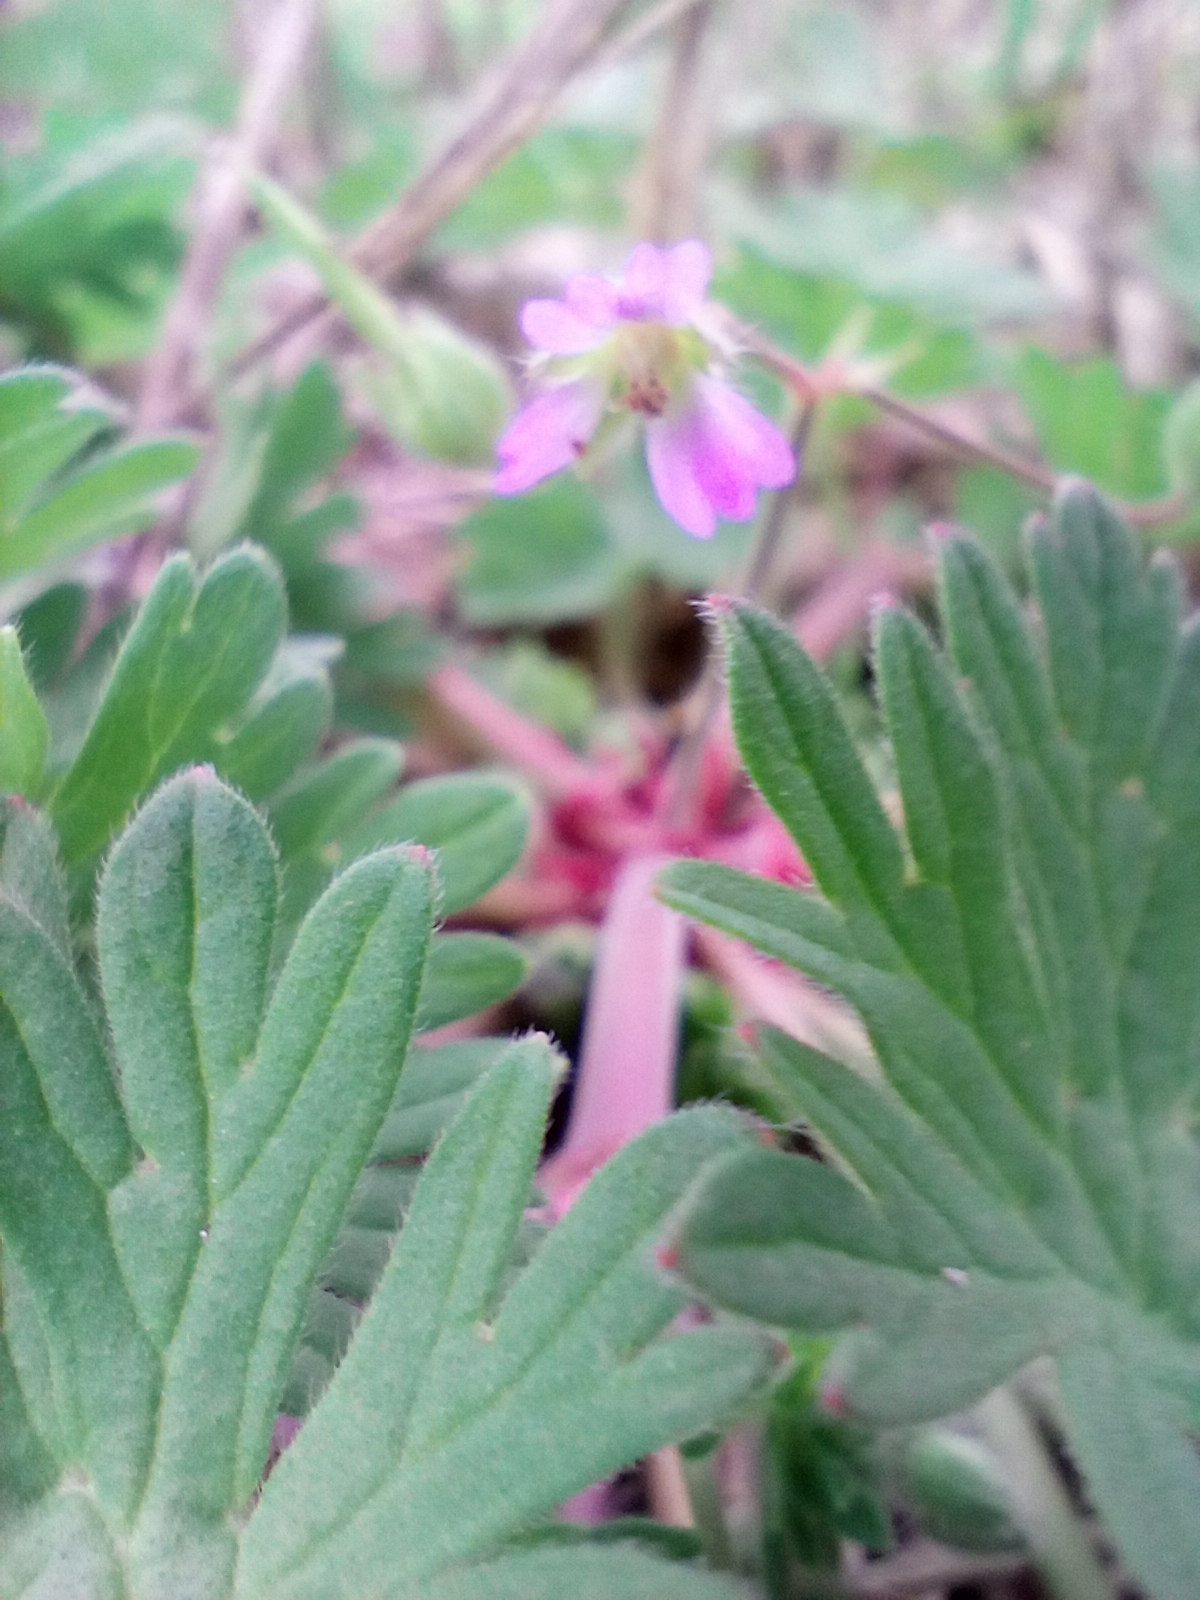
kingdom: Plantae
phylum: Tracheophyta
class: Magnoliopsida
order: Geraniales
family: Geraniaceae
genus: Geranium
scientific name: Geranium pusillum
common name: Small geranium
